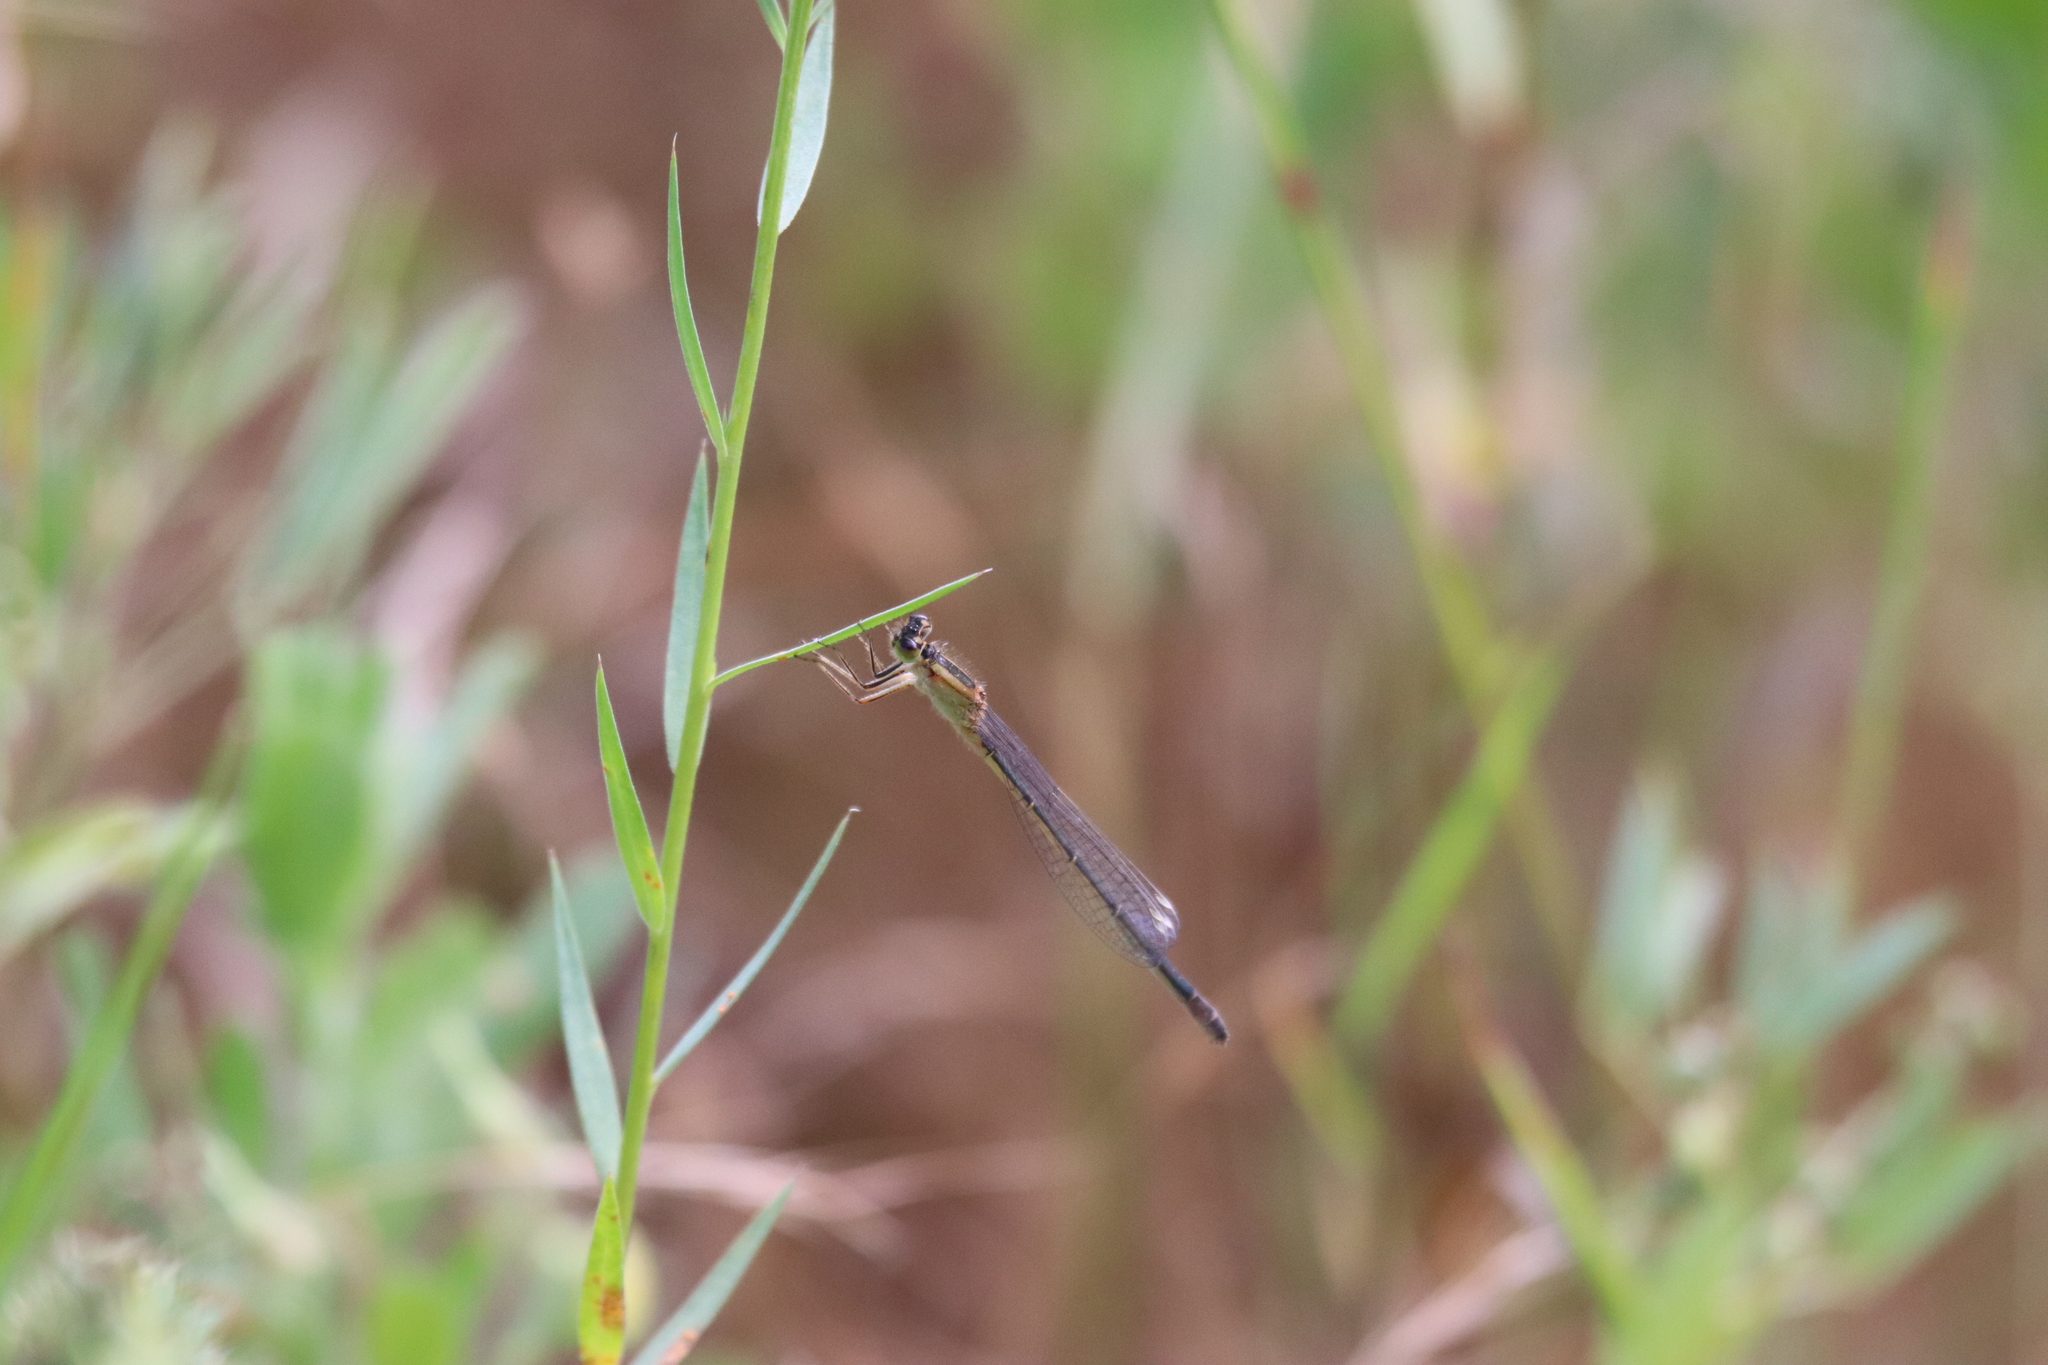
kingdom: Animalia
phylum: Arthropoda
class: Insecta
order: Odonata
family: Coenagrionidae
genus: Ischnura
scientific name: Ischnura elegans
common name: Blue-tailed damselfly
